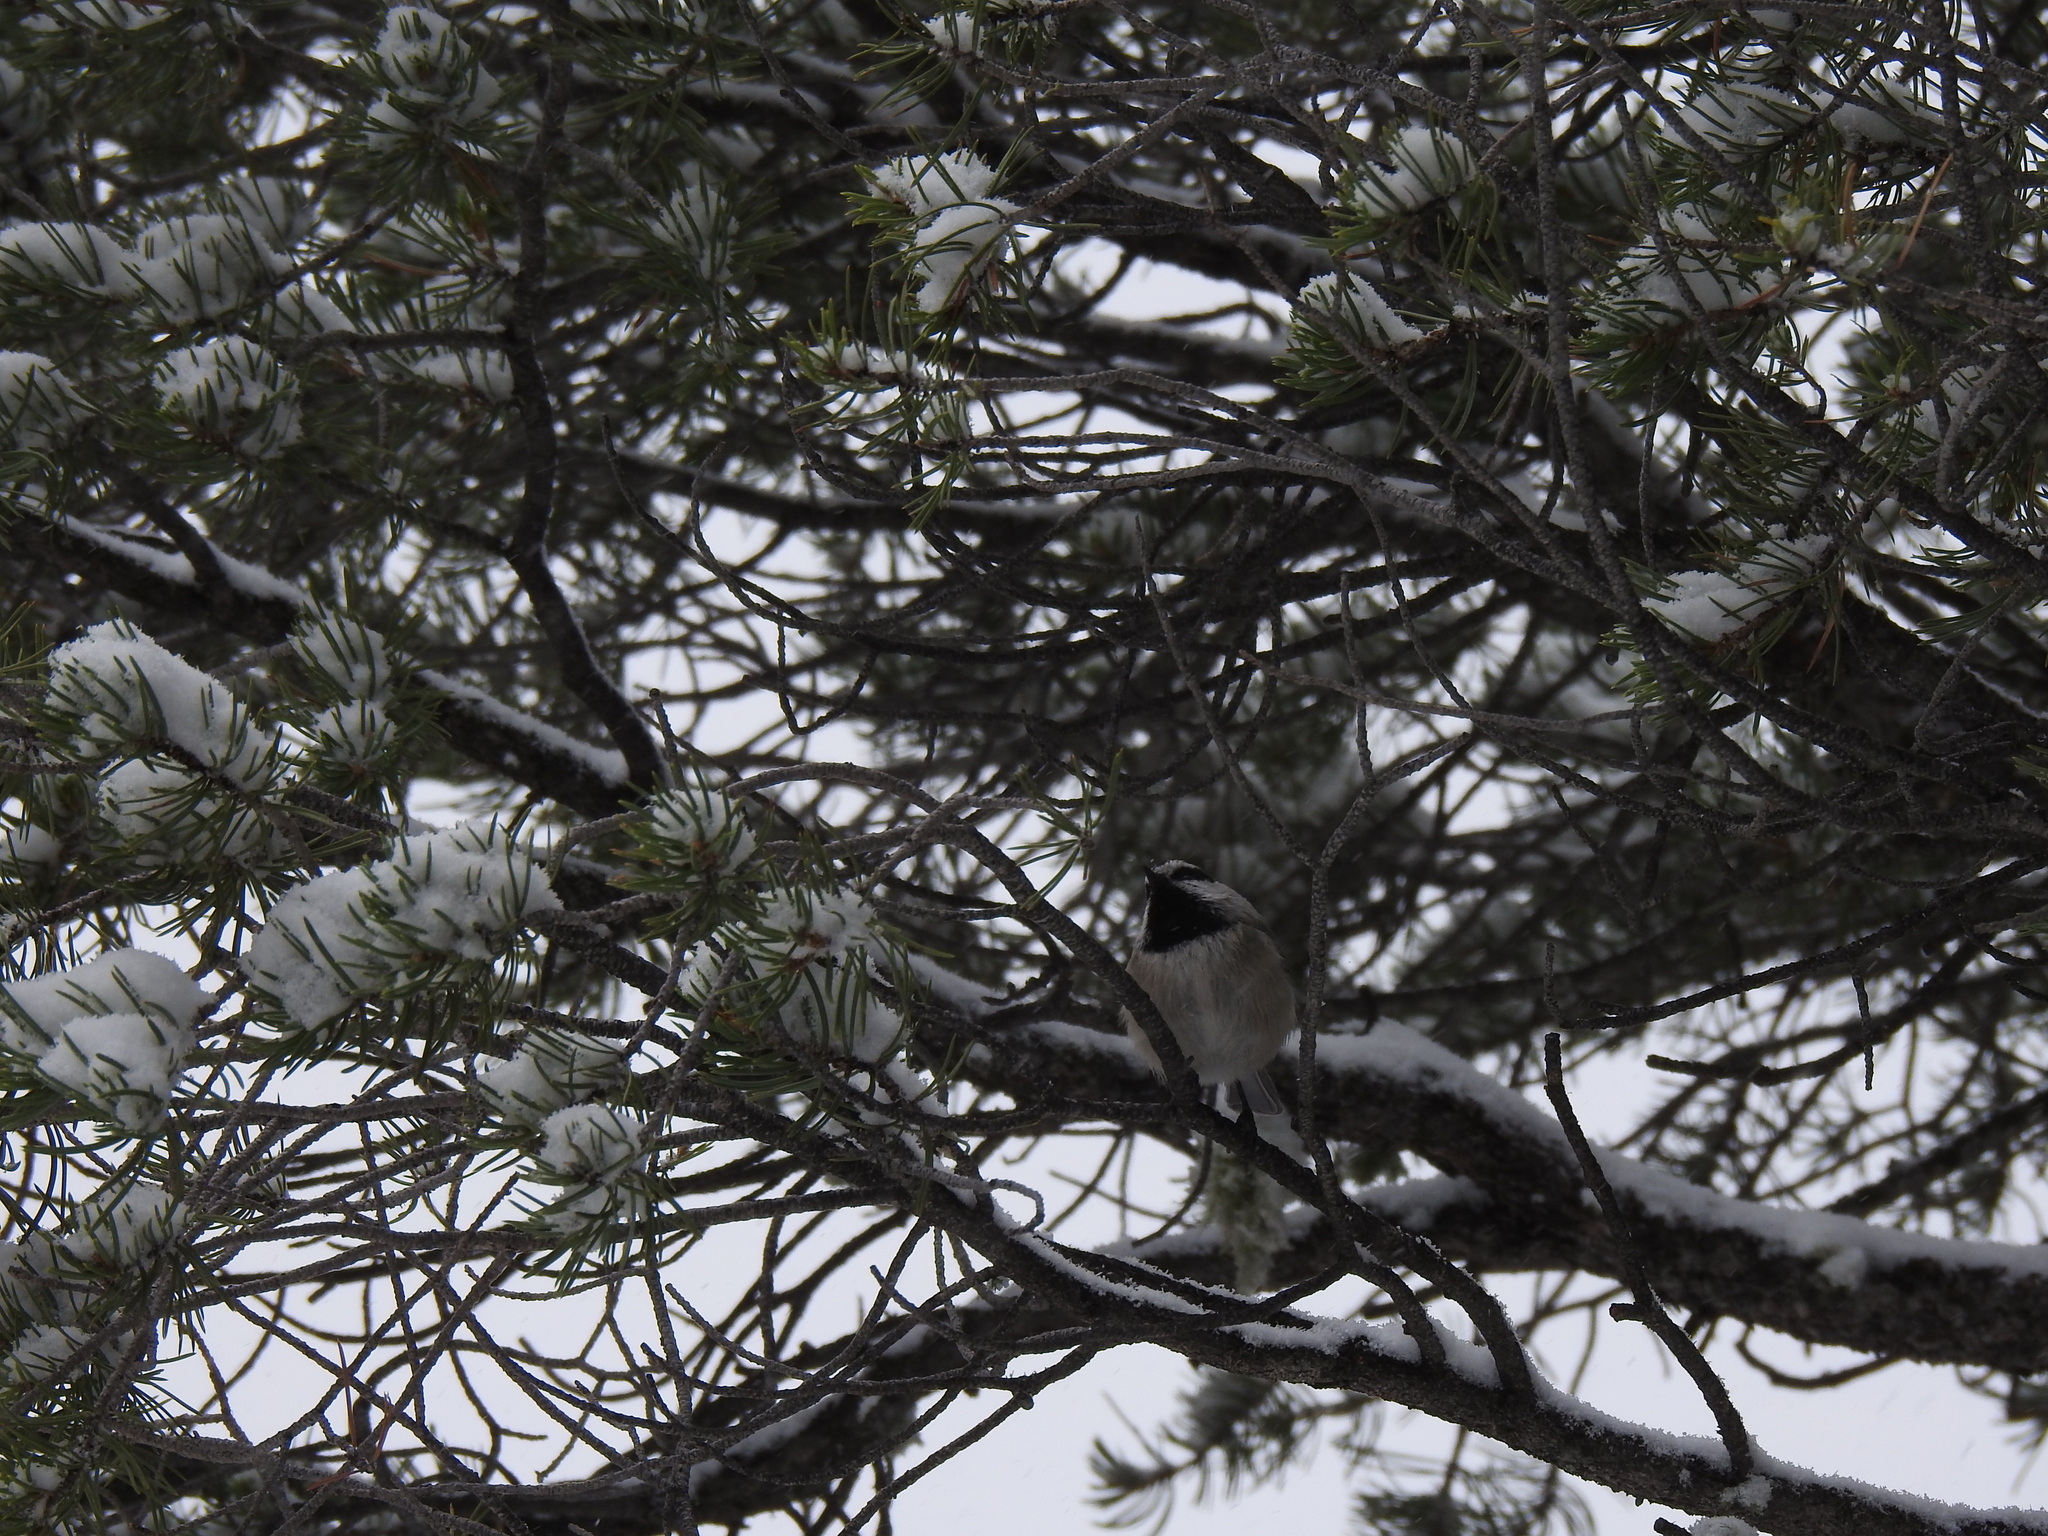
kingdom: Animalia
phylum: Chordata
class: Aves
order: Passeriformes
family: Paridae
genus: Poecile
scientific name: Poecile gambeli
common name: Mountain chickadee
